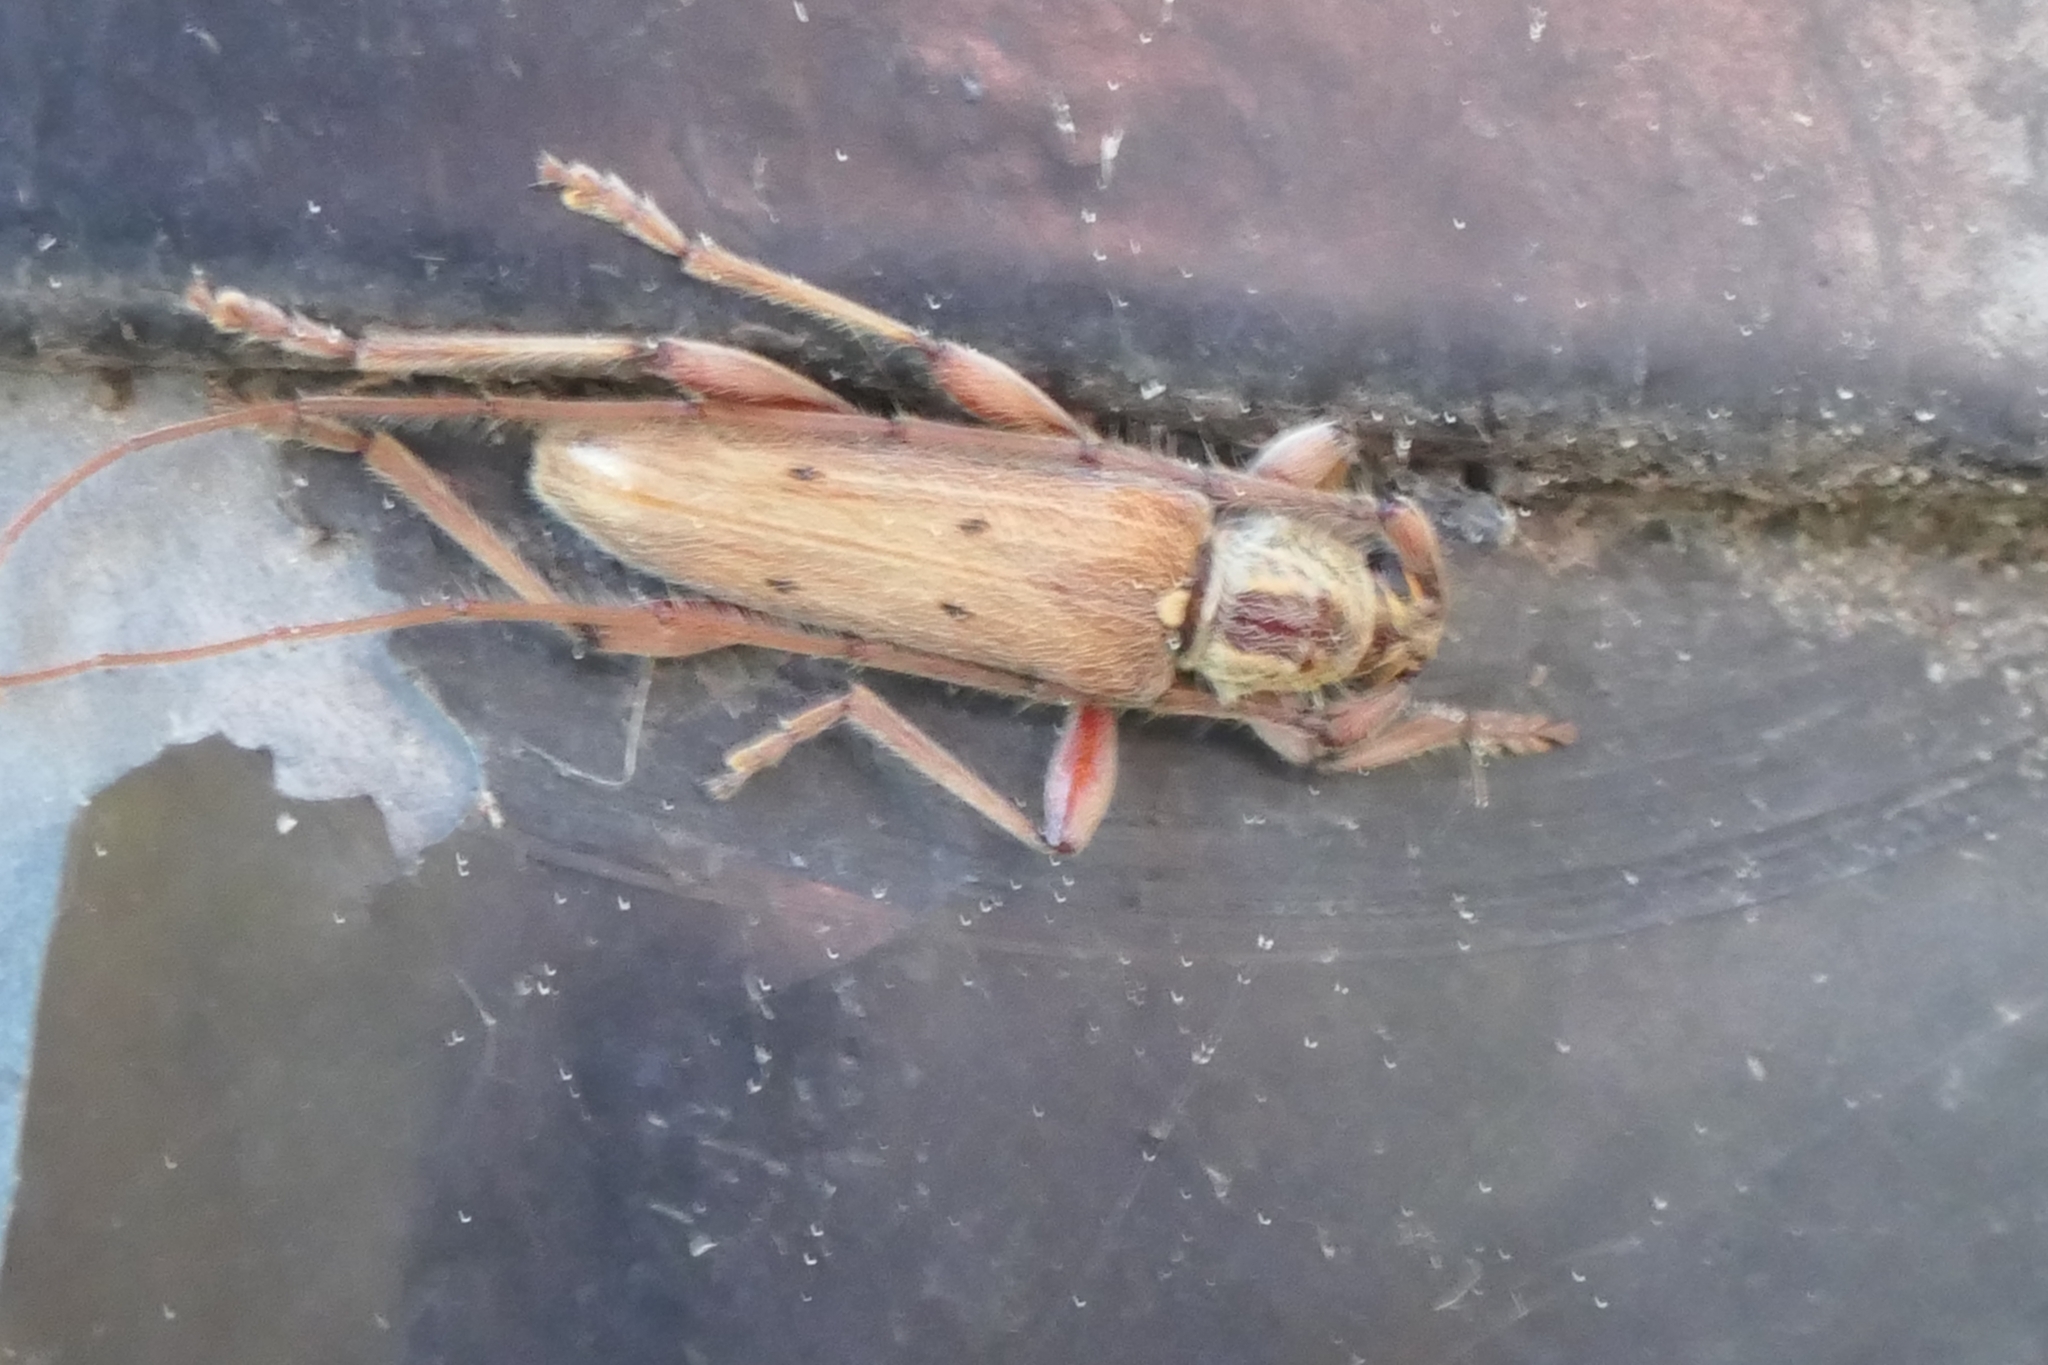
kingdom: Animalia
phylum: Arthropoda
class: Insecta
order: Coleoptera
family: Cerambycidae
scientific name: Cerambycidae
